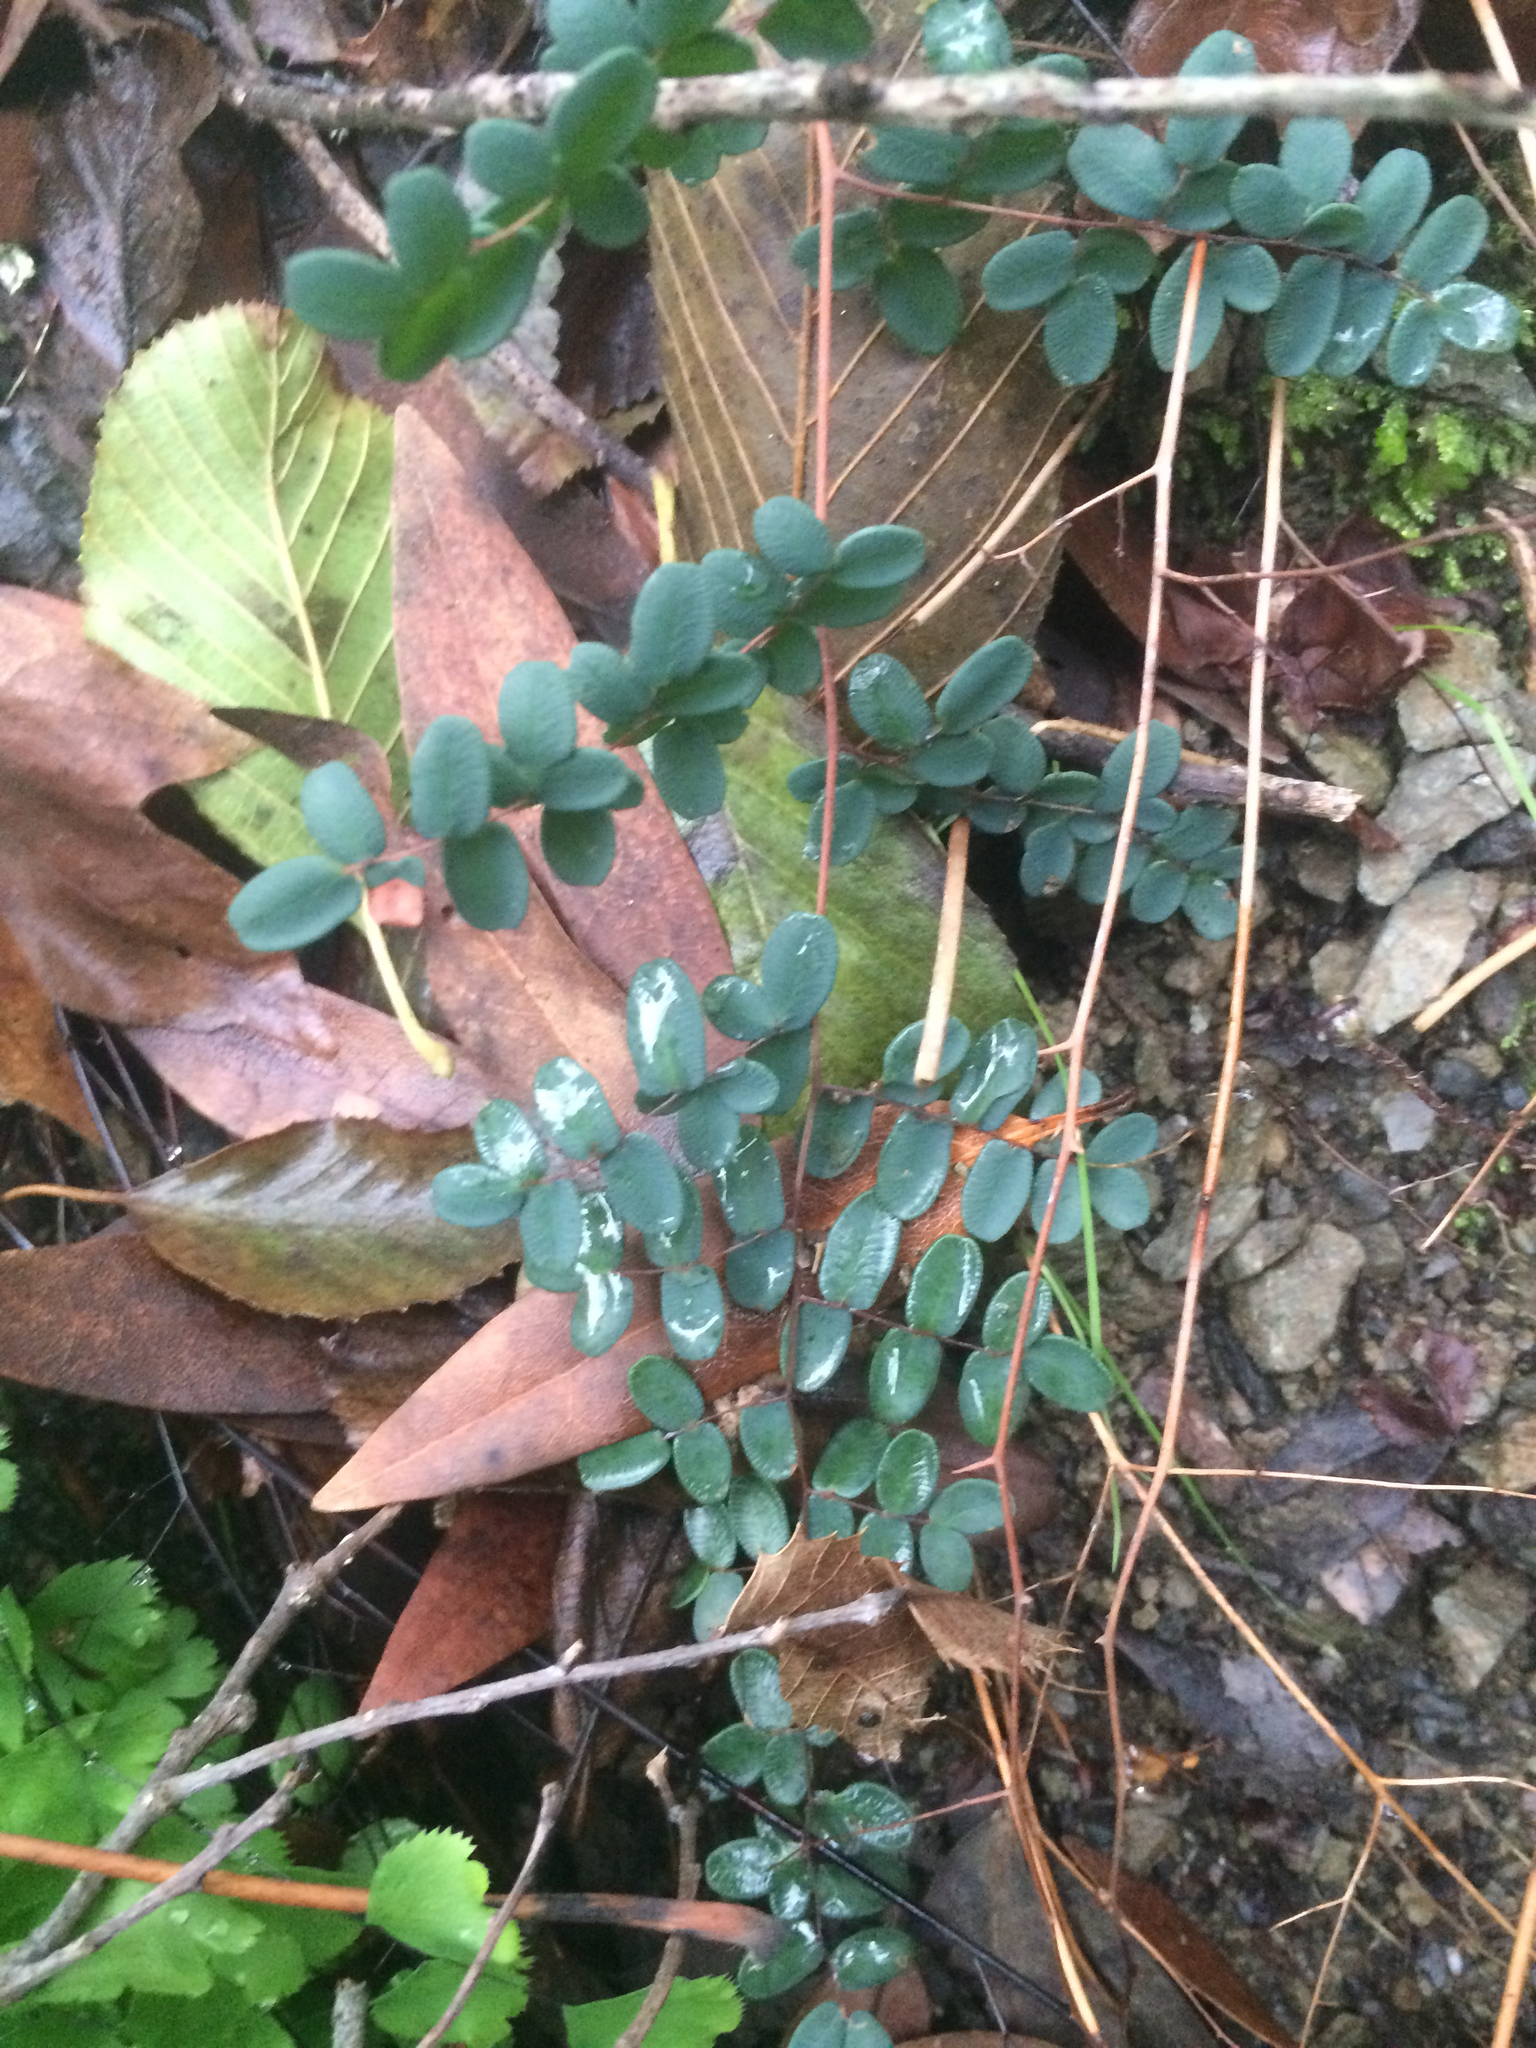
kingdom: Plantae
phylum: Tracheophyta
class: Polypodiopsida
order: Polypodiales
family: Pteridaceae
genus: Pellaea
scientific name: Pellaea andromedifolia
